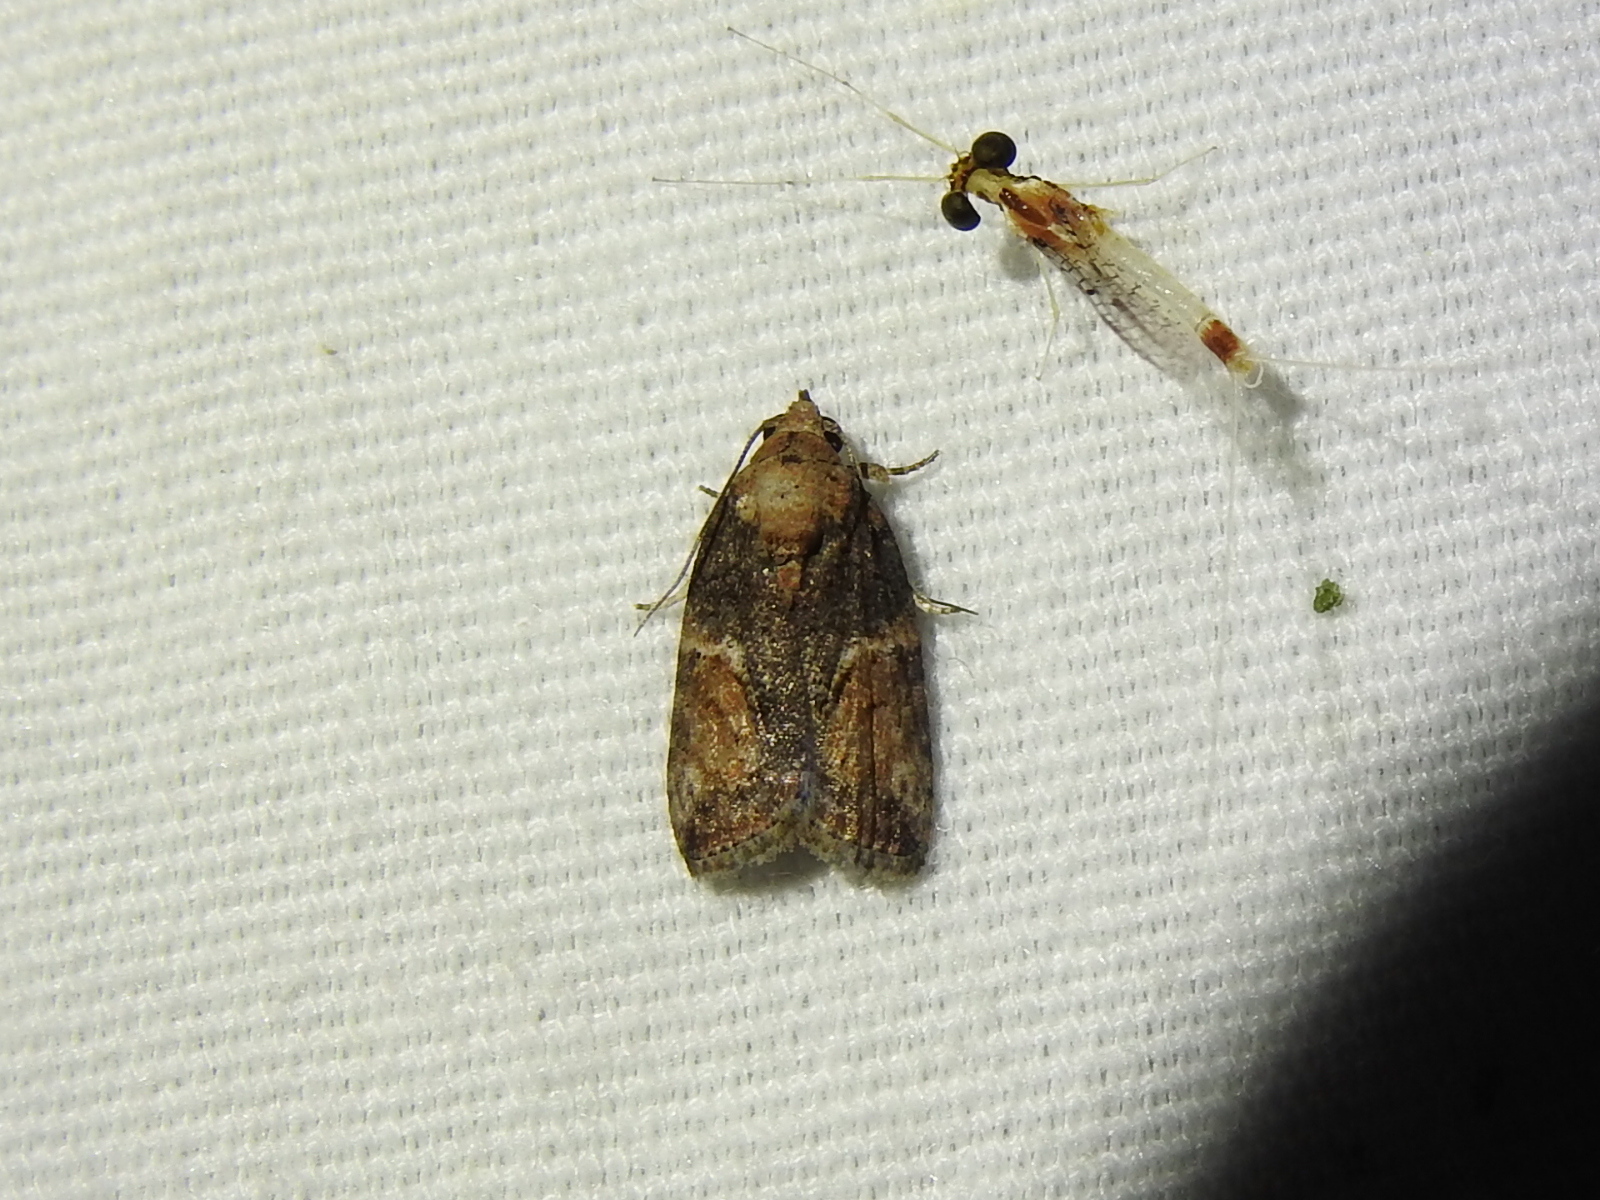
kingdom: Animalia
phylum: Arthropoda
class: Insecta
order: Lepidoptera
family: Nolidae
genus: Garella
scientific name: Garella nilotica
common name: Black-olive caterpillar moth
